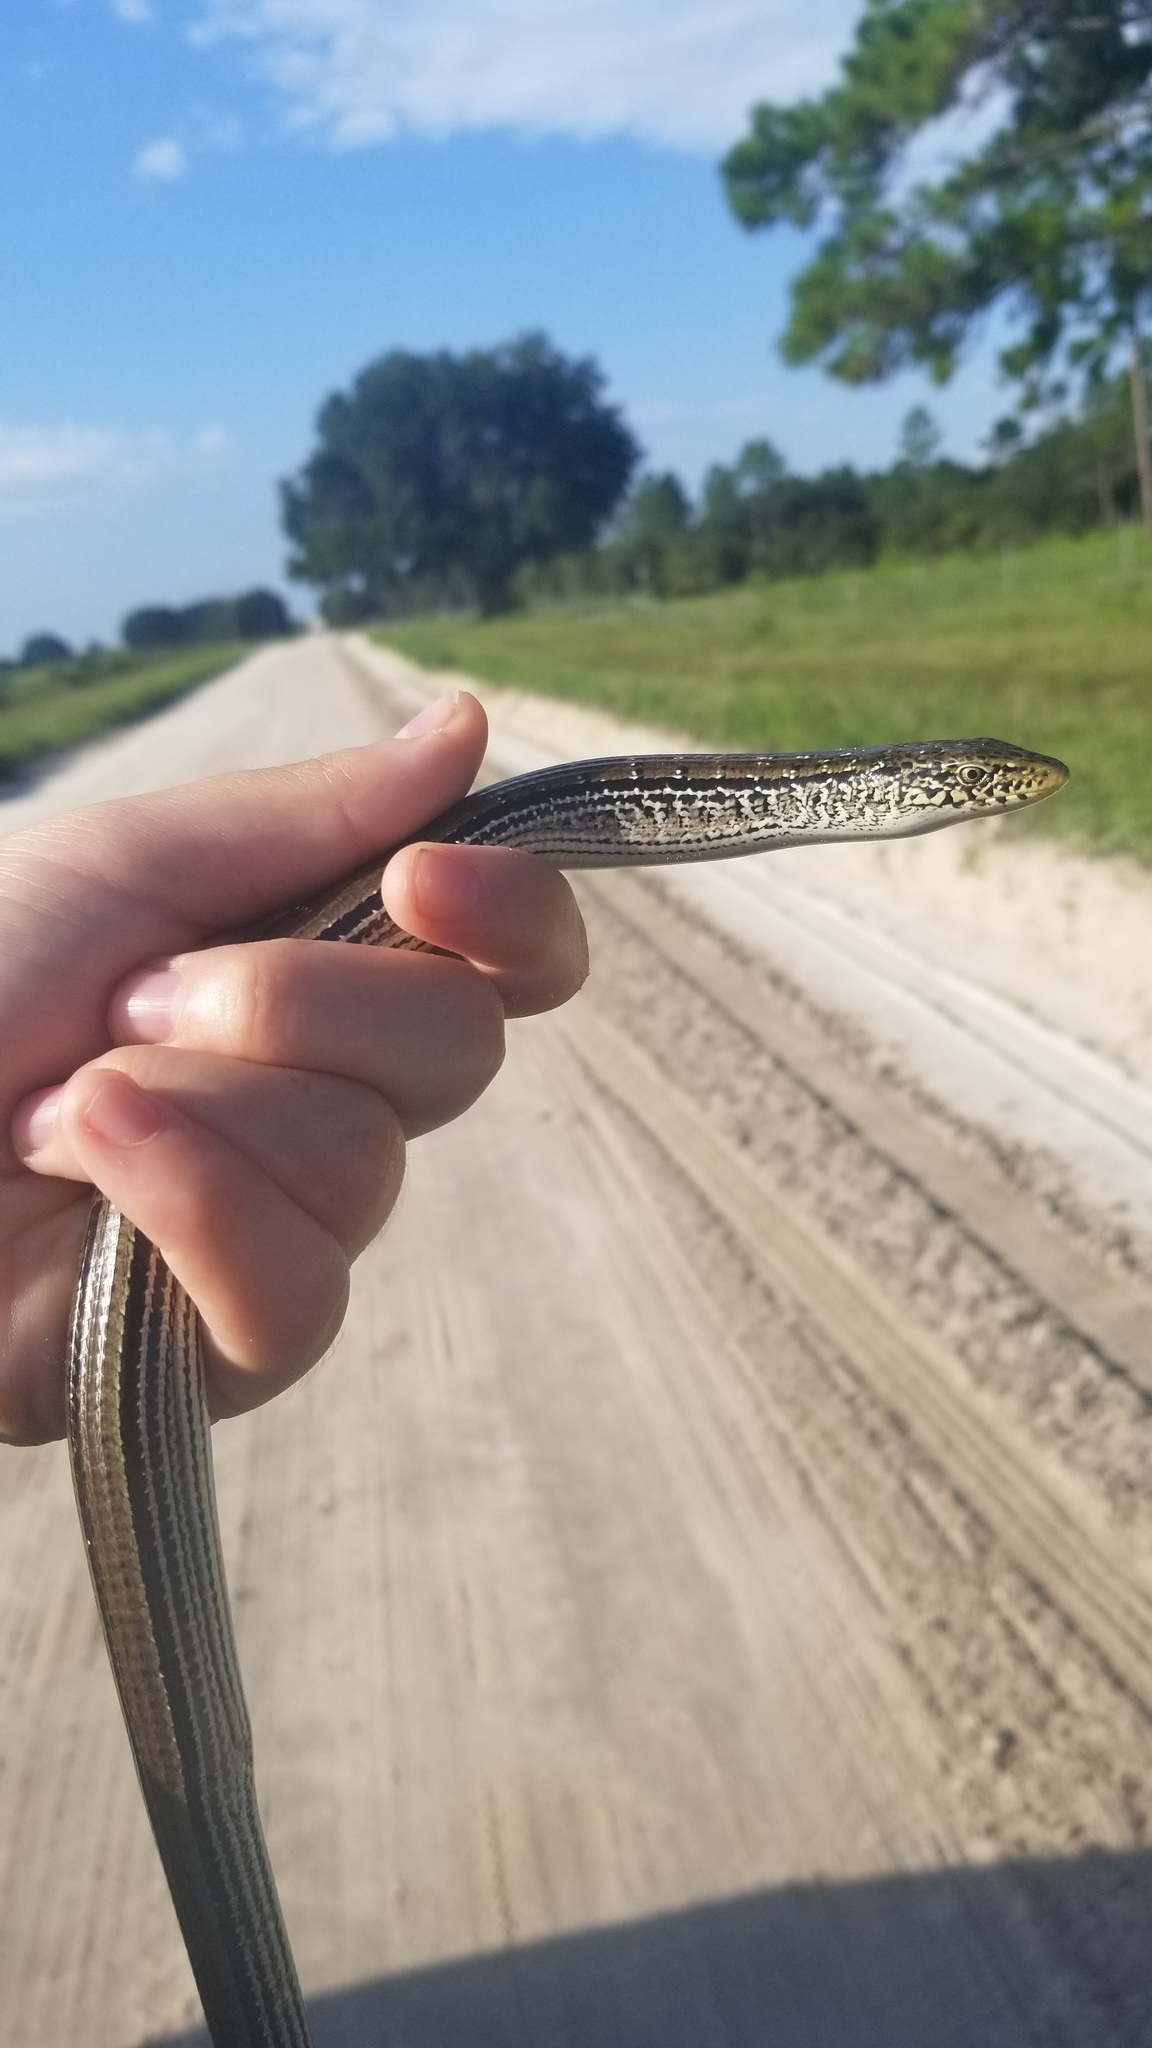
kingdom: Animalia
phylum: Chordata
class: Squamata
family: Anguidae
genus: Ophisaurus
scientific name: Ophisaurus attenuatus
